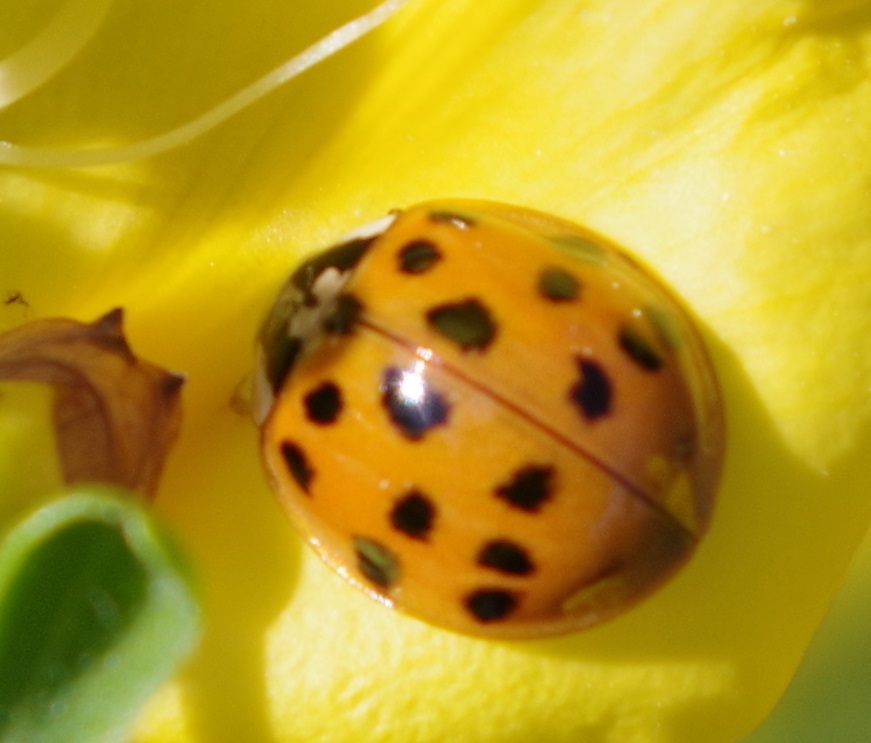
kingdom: Animalia
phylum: Arthropoda
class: Insecta
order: Coleoptera
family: Coccinellidae
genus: Harmonia
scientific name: Harmonia axyridis
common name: Harlequin ladybird
